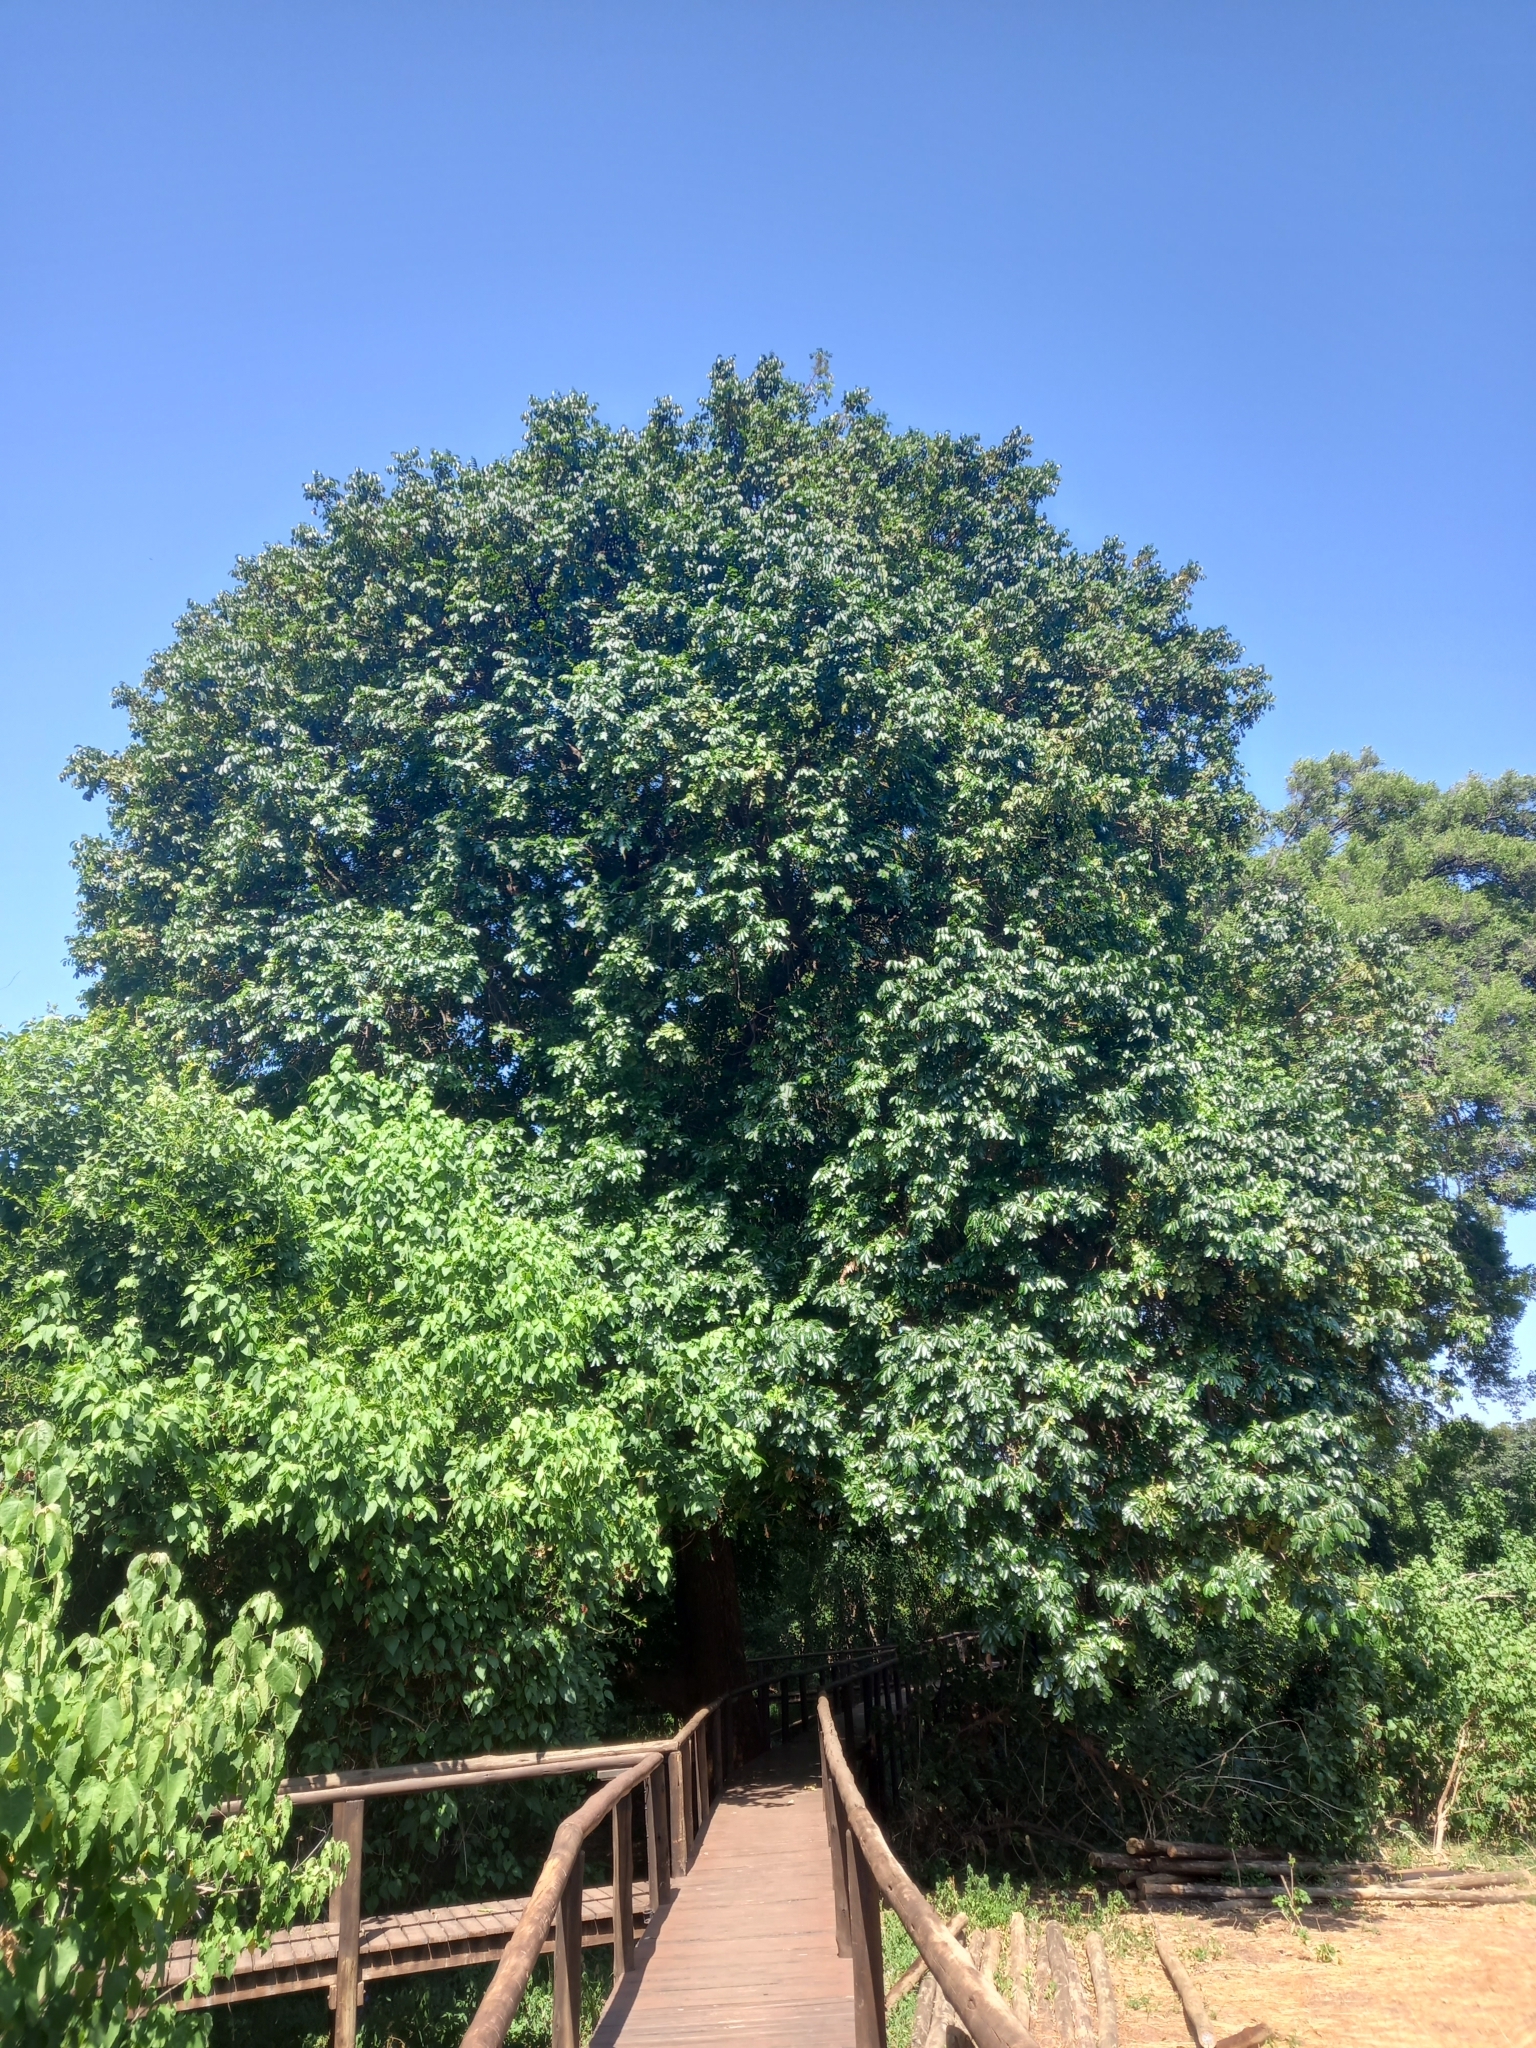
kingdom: Plantae
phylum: Tracheophyta
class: Magnoliopsida
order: Sapindales
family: Meliaceae
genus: Trichilia
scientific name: Trichilia emetica
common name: Christmas-bells
